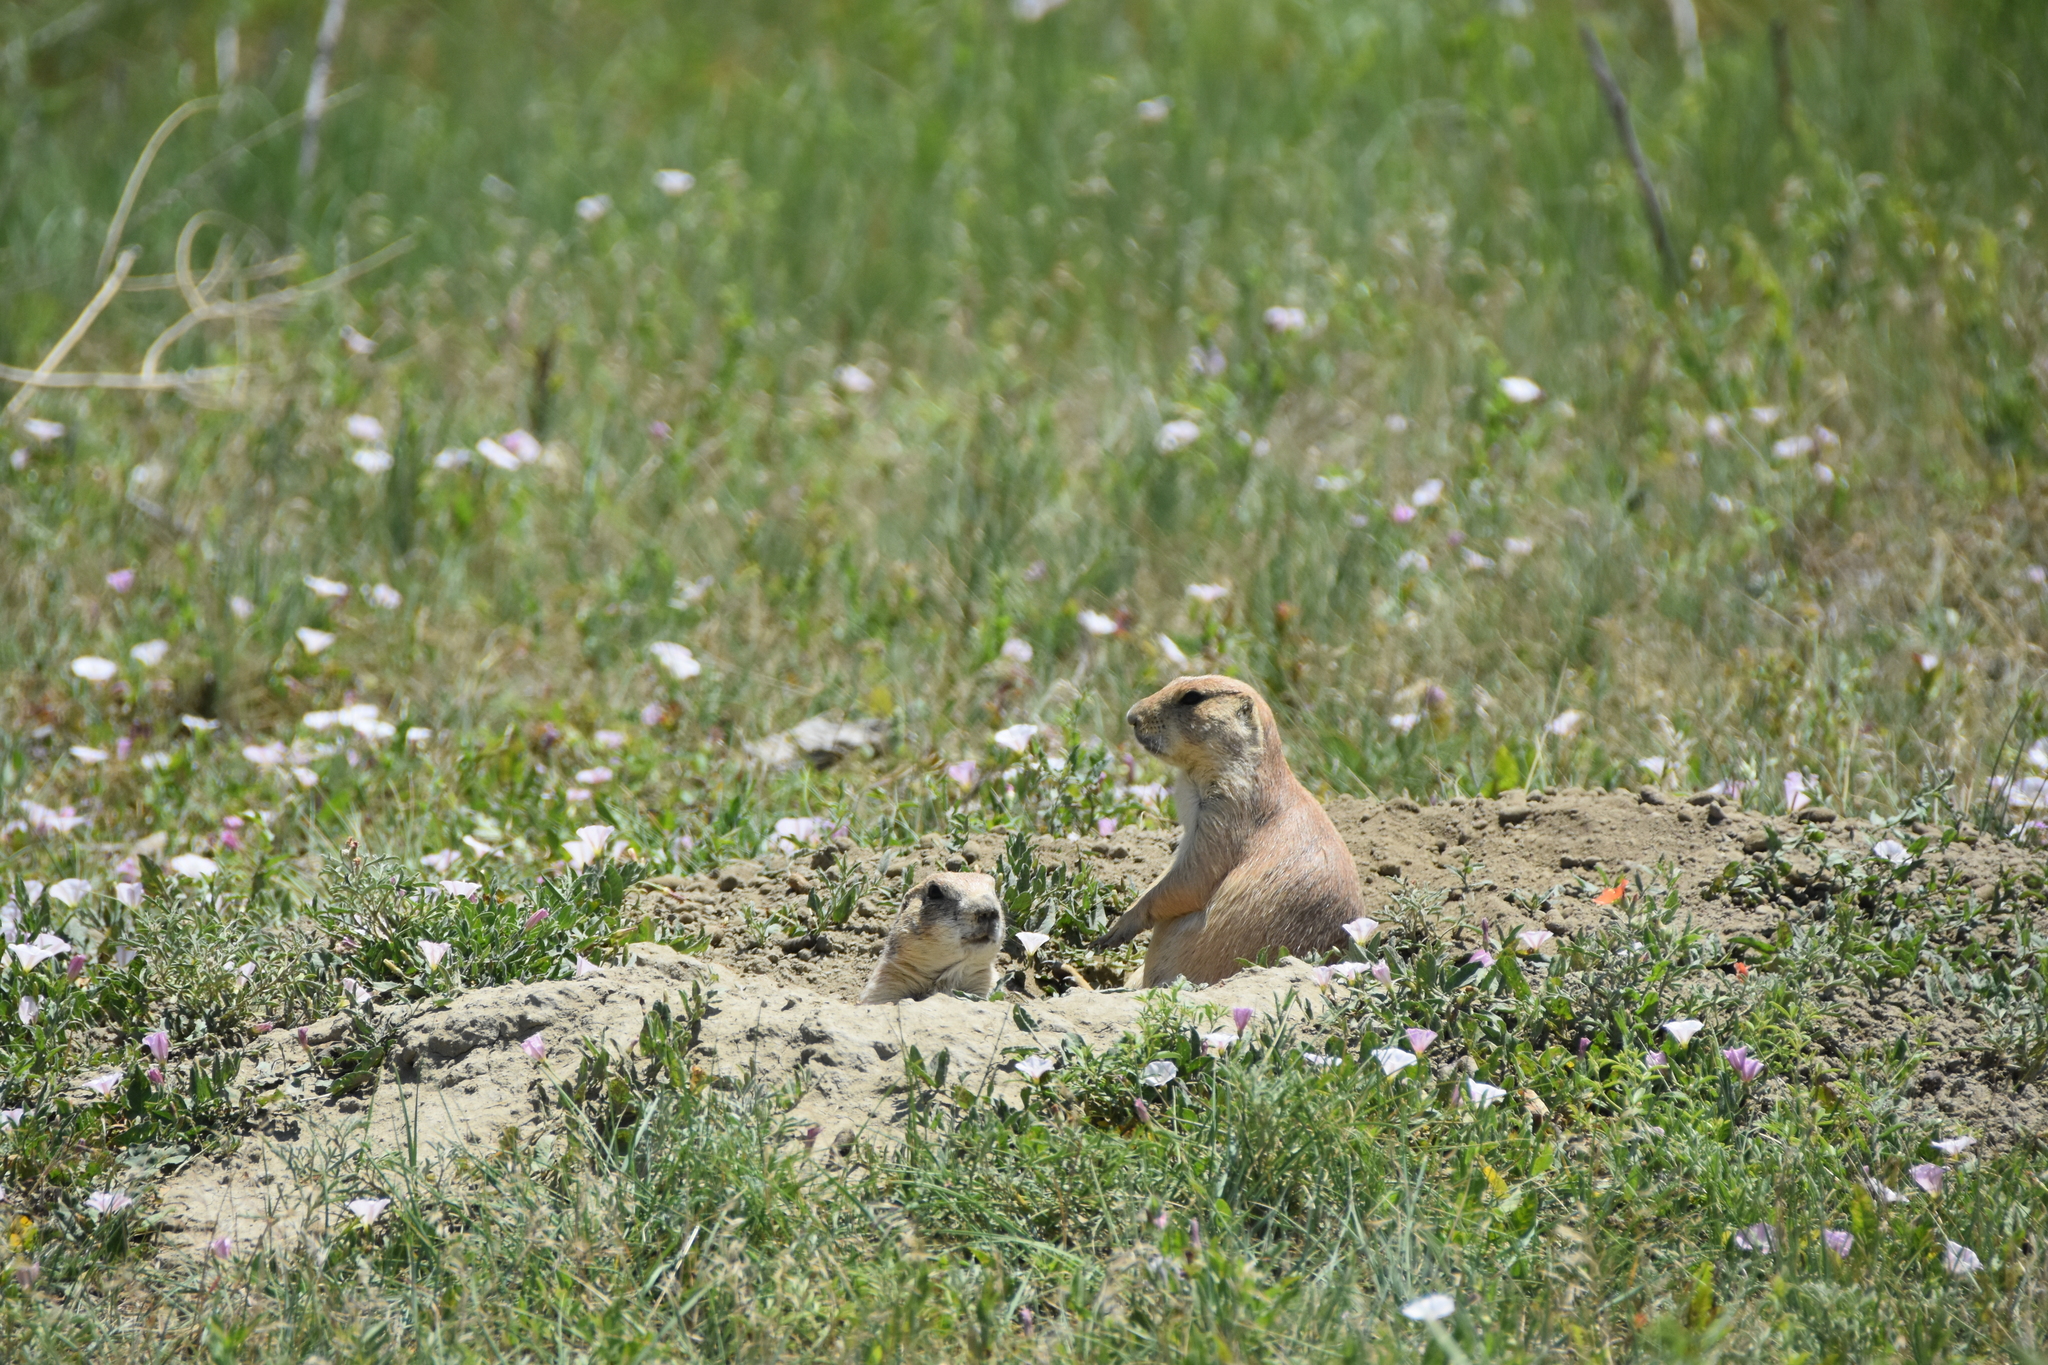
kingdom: Animalia
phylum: Chordata
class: Mammalia
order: Rodentia
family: Sciuridae
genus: Cynomys
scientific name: Cynomys ludovicianus
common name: Black-tailed prairie dog
